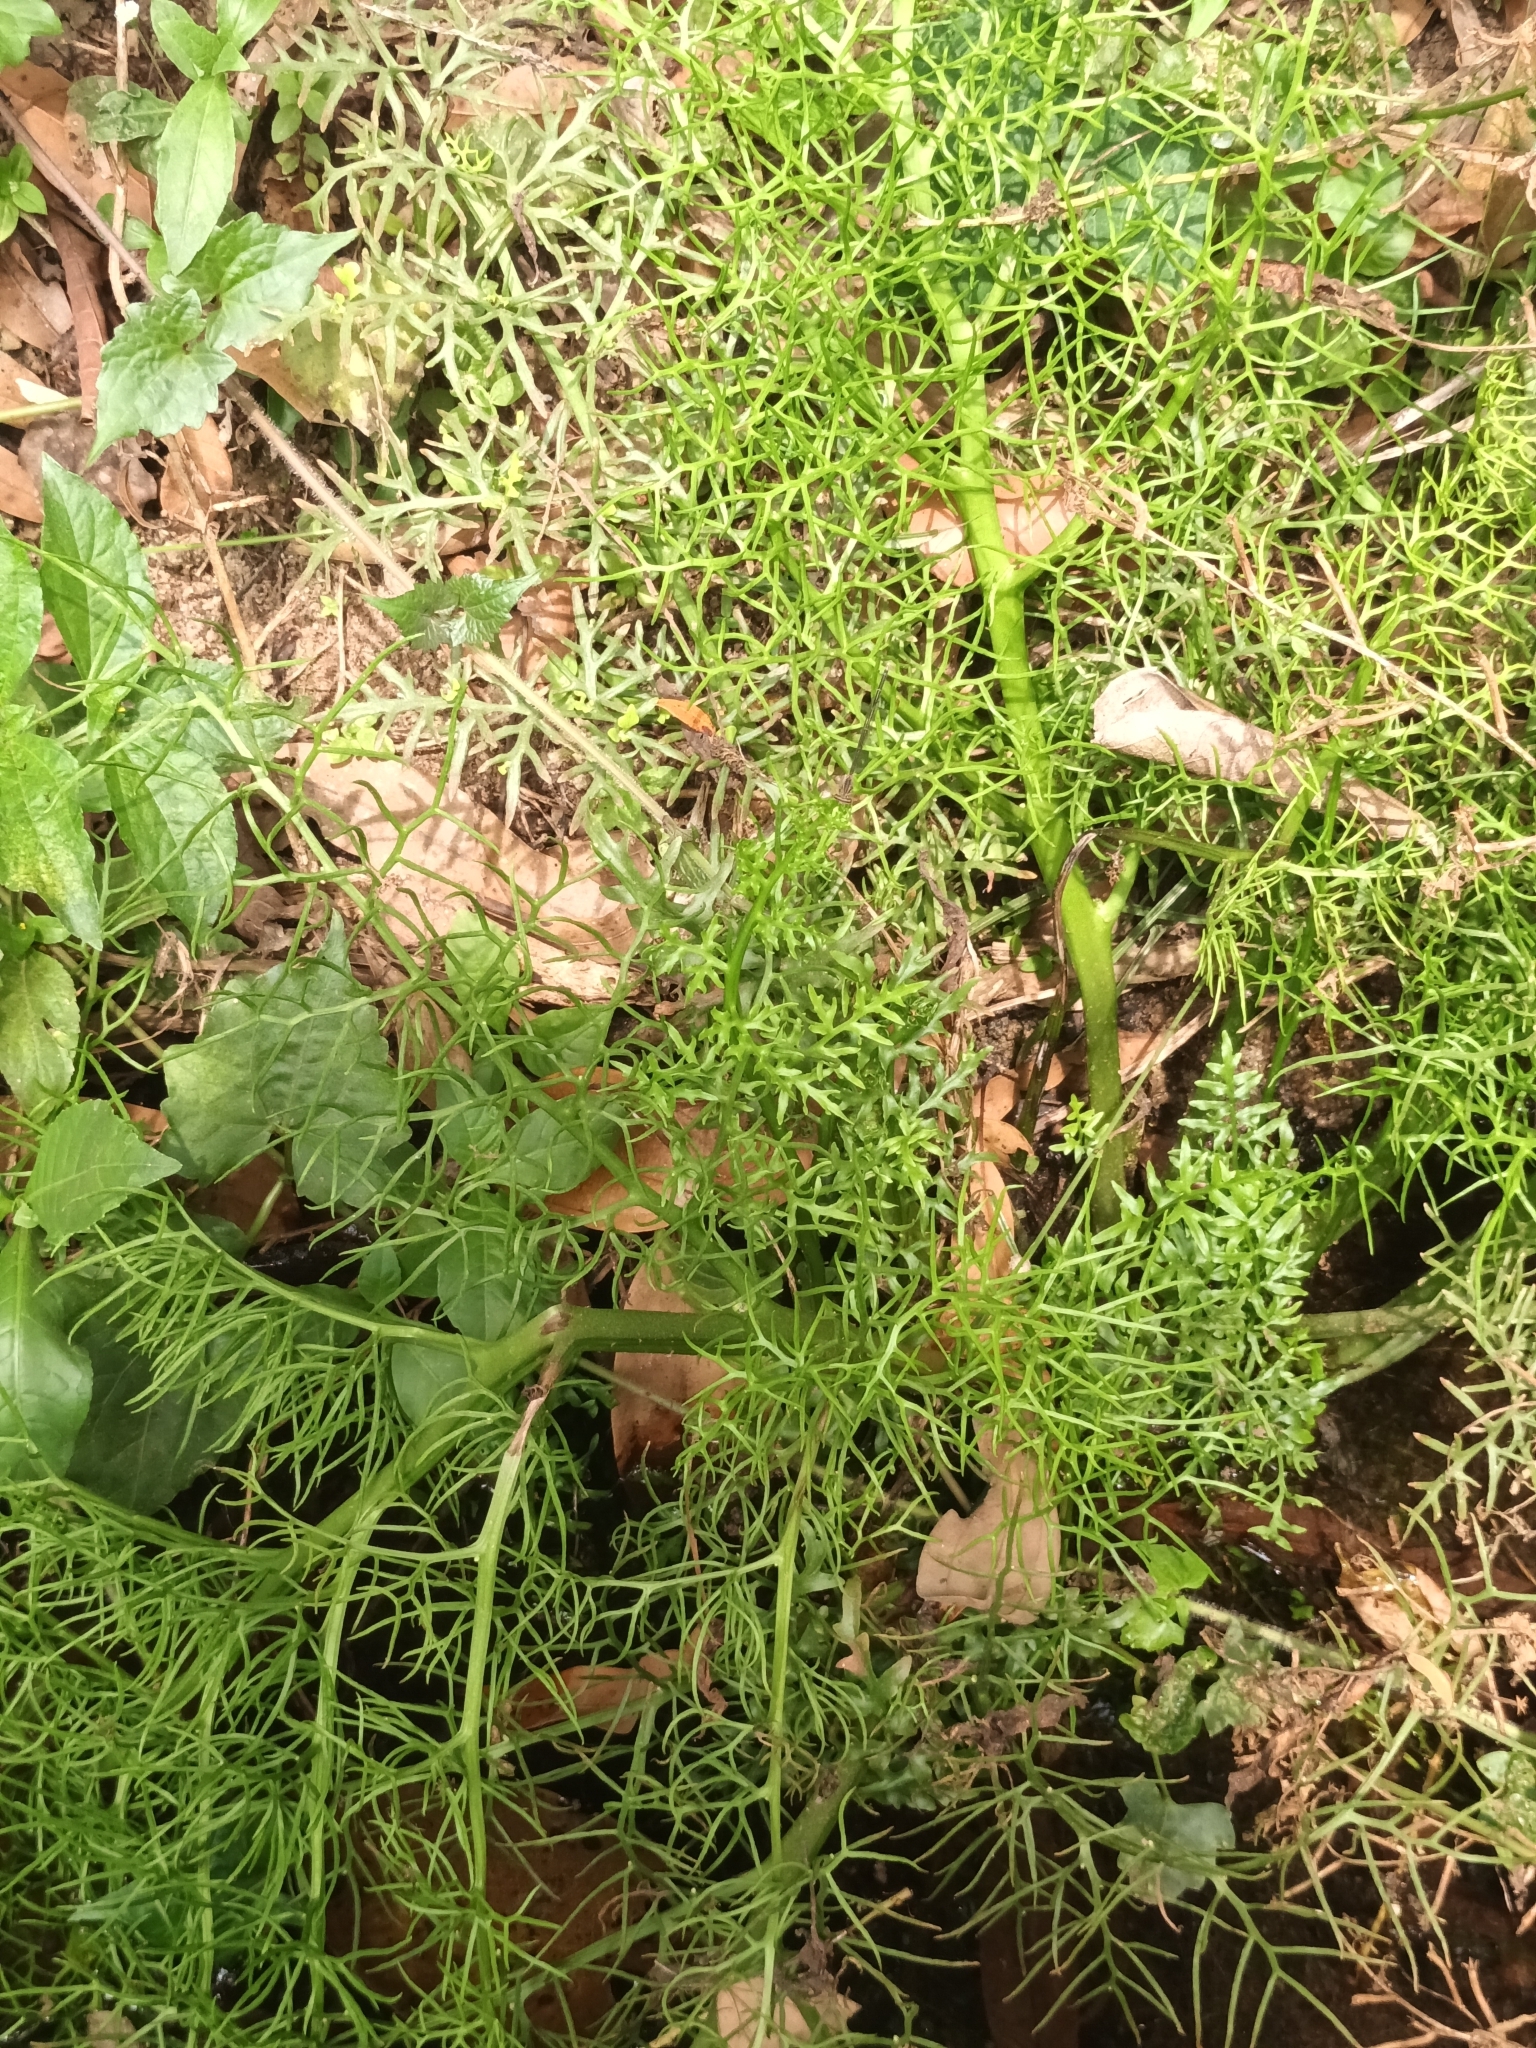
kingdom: Plantae
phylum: Tracheophyta
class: Polypodiopsida
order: Polypodiales
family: Pteridaceae
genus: Ceratopteris
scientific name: Ceratopteris thalictroides
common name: Water fern
